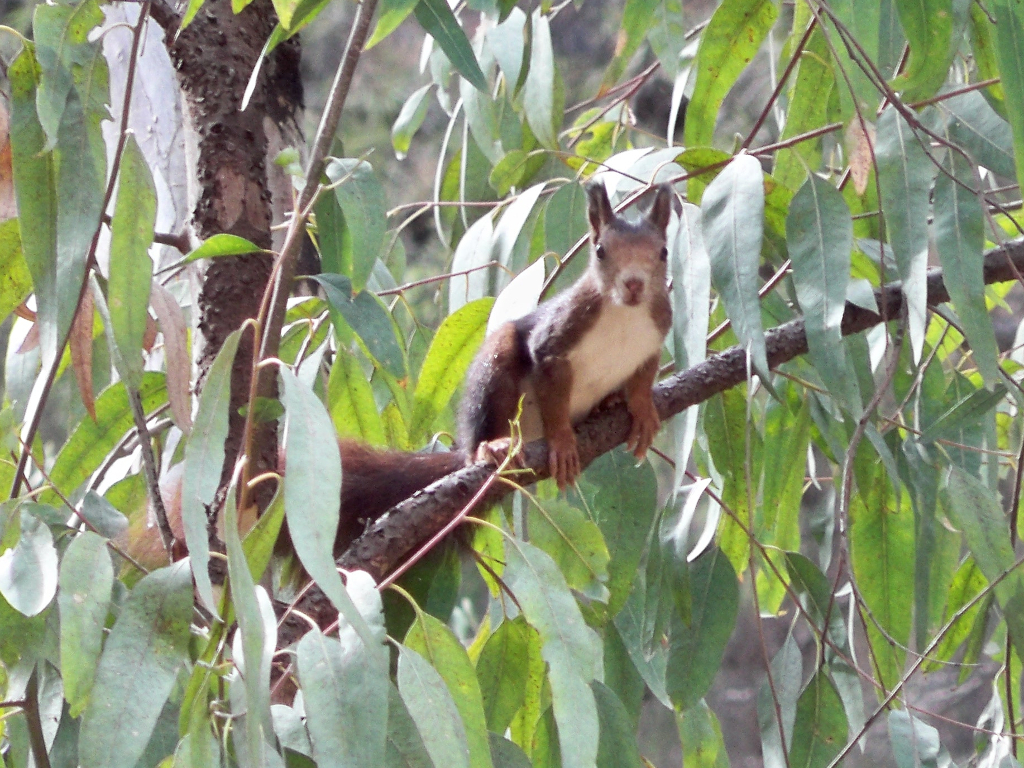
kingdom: Animalia
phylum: Chordata
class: Mammalia
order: Rodentia
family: Sciuridae
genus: Sciurus
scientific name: Sciurus vulgaris
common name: Eurasian red squirrel
